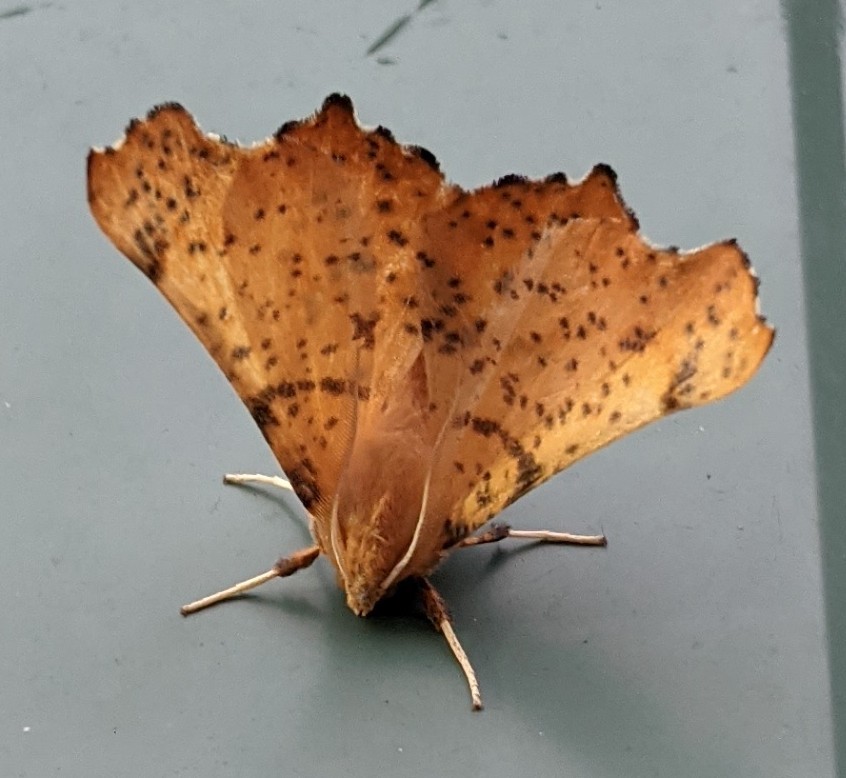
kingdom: Animalia
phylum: Arthropoda
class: Insecta
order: Lepidoptera
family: Geometridae
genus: Ennomos
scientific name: Ennomos magnaria
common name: Maple spanworm
